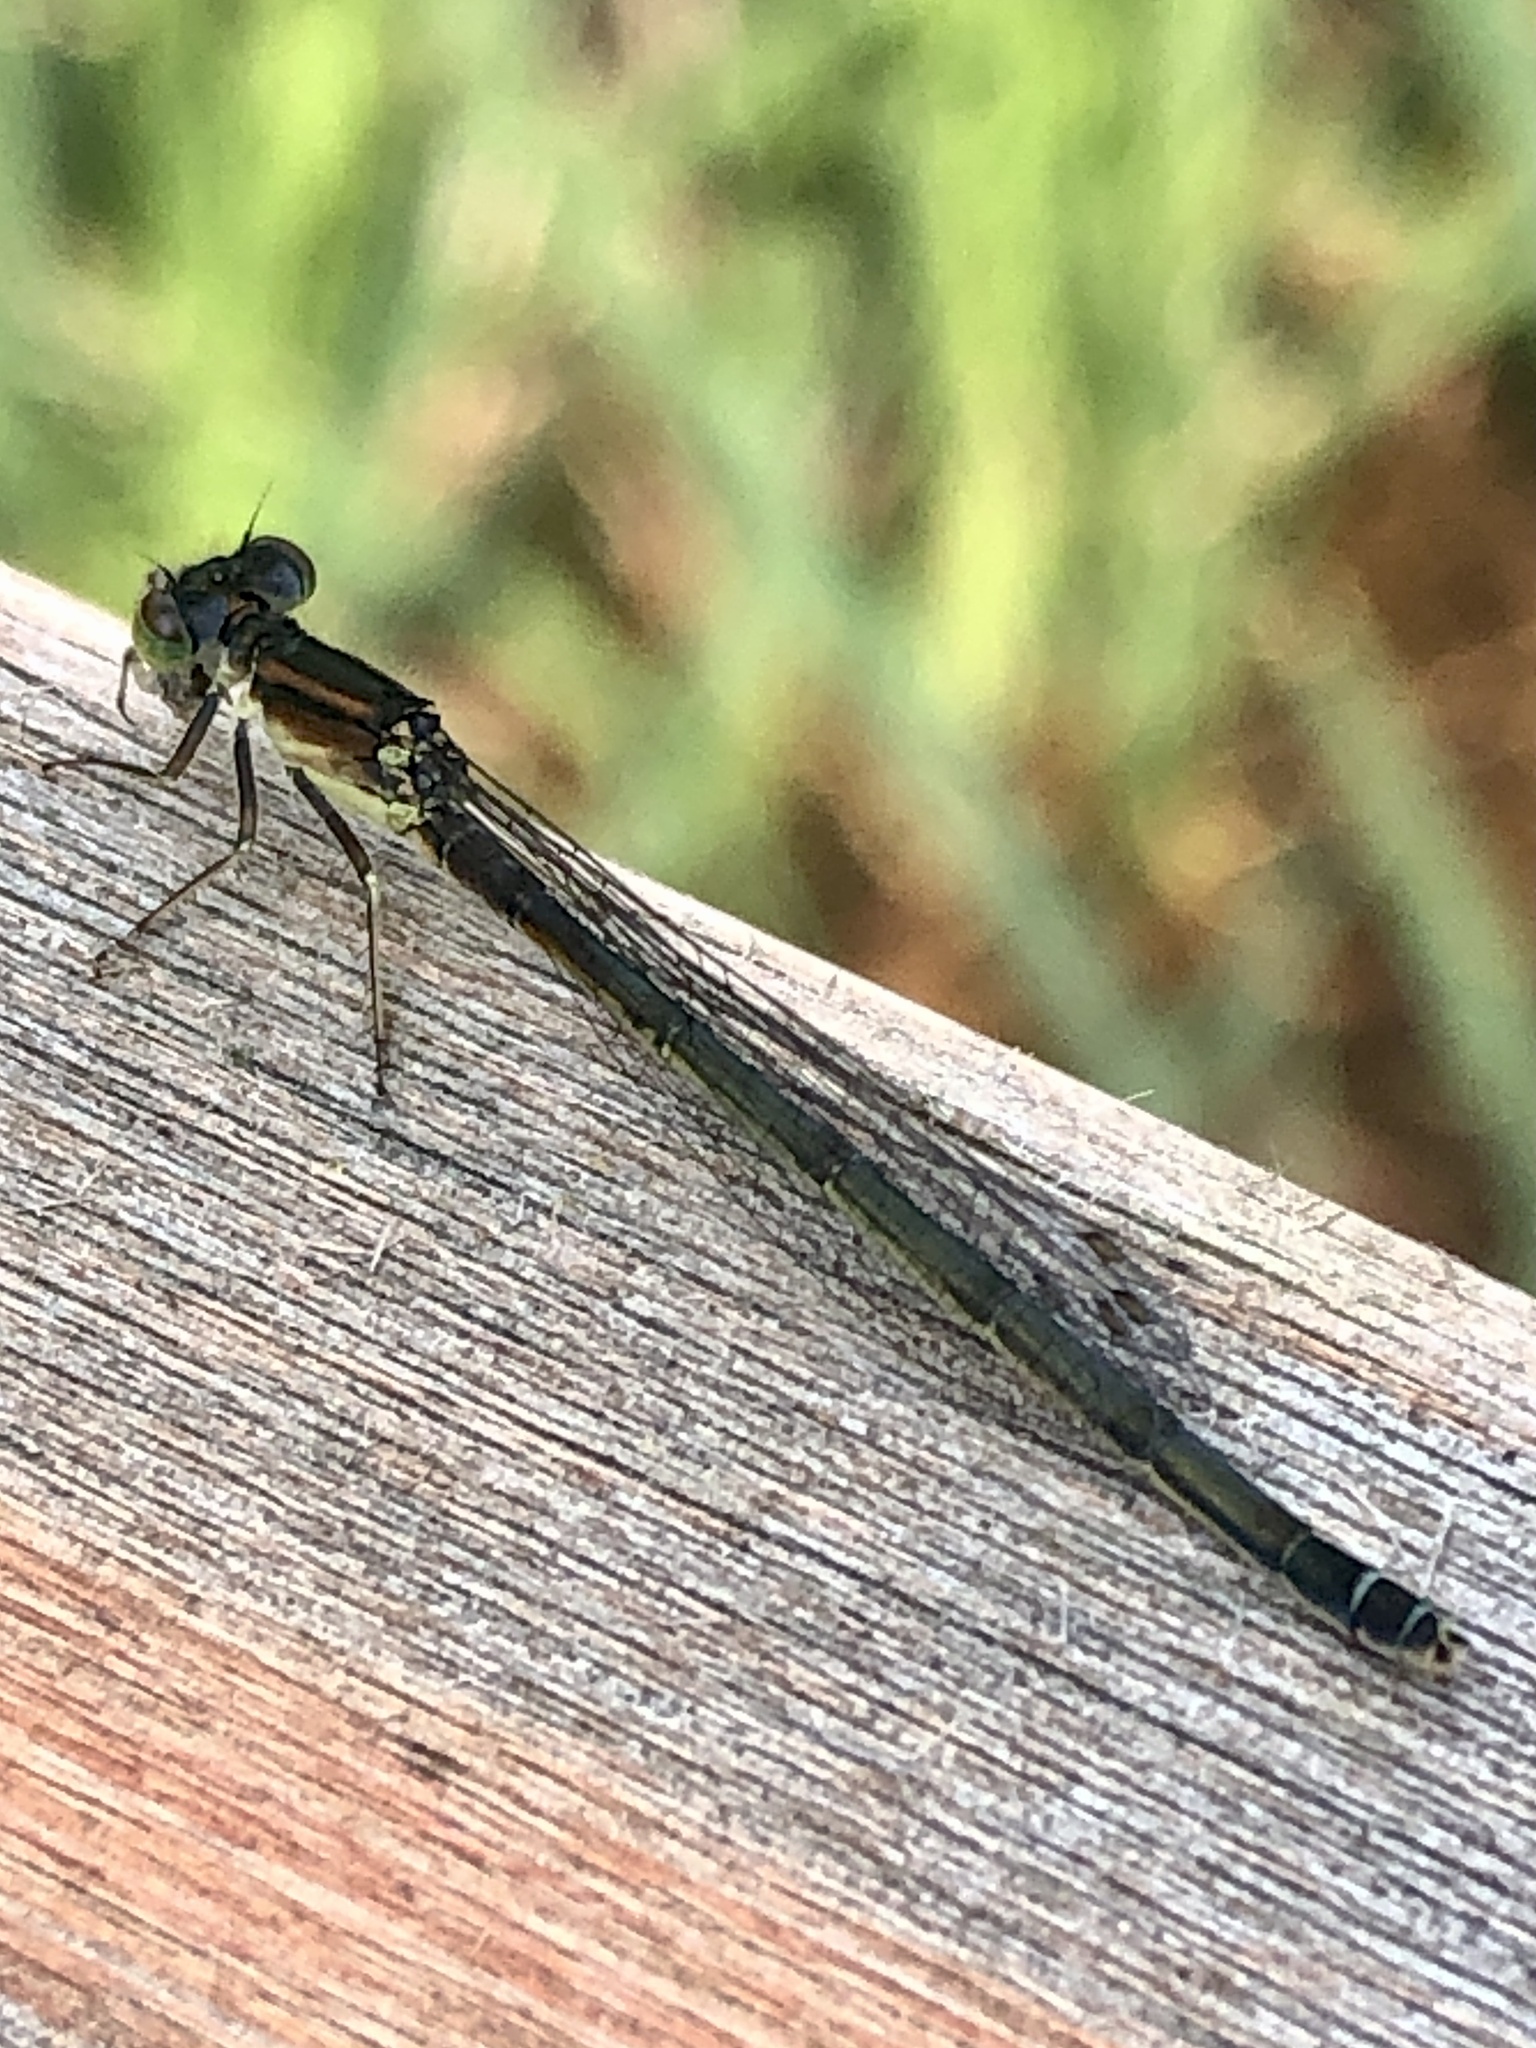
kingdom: Animalia
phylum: Arthropoda
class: Insecta
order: Odonata
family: Coenagrionidae
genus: Ischnura
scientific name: Ischnura verticalis
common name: Eastern forktail
